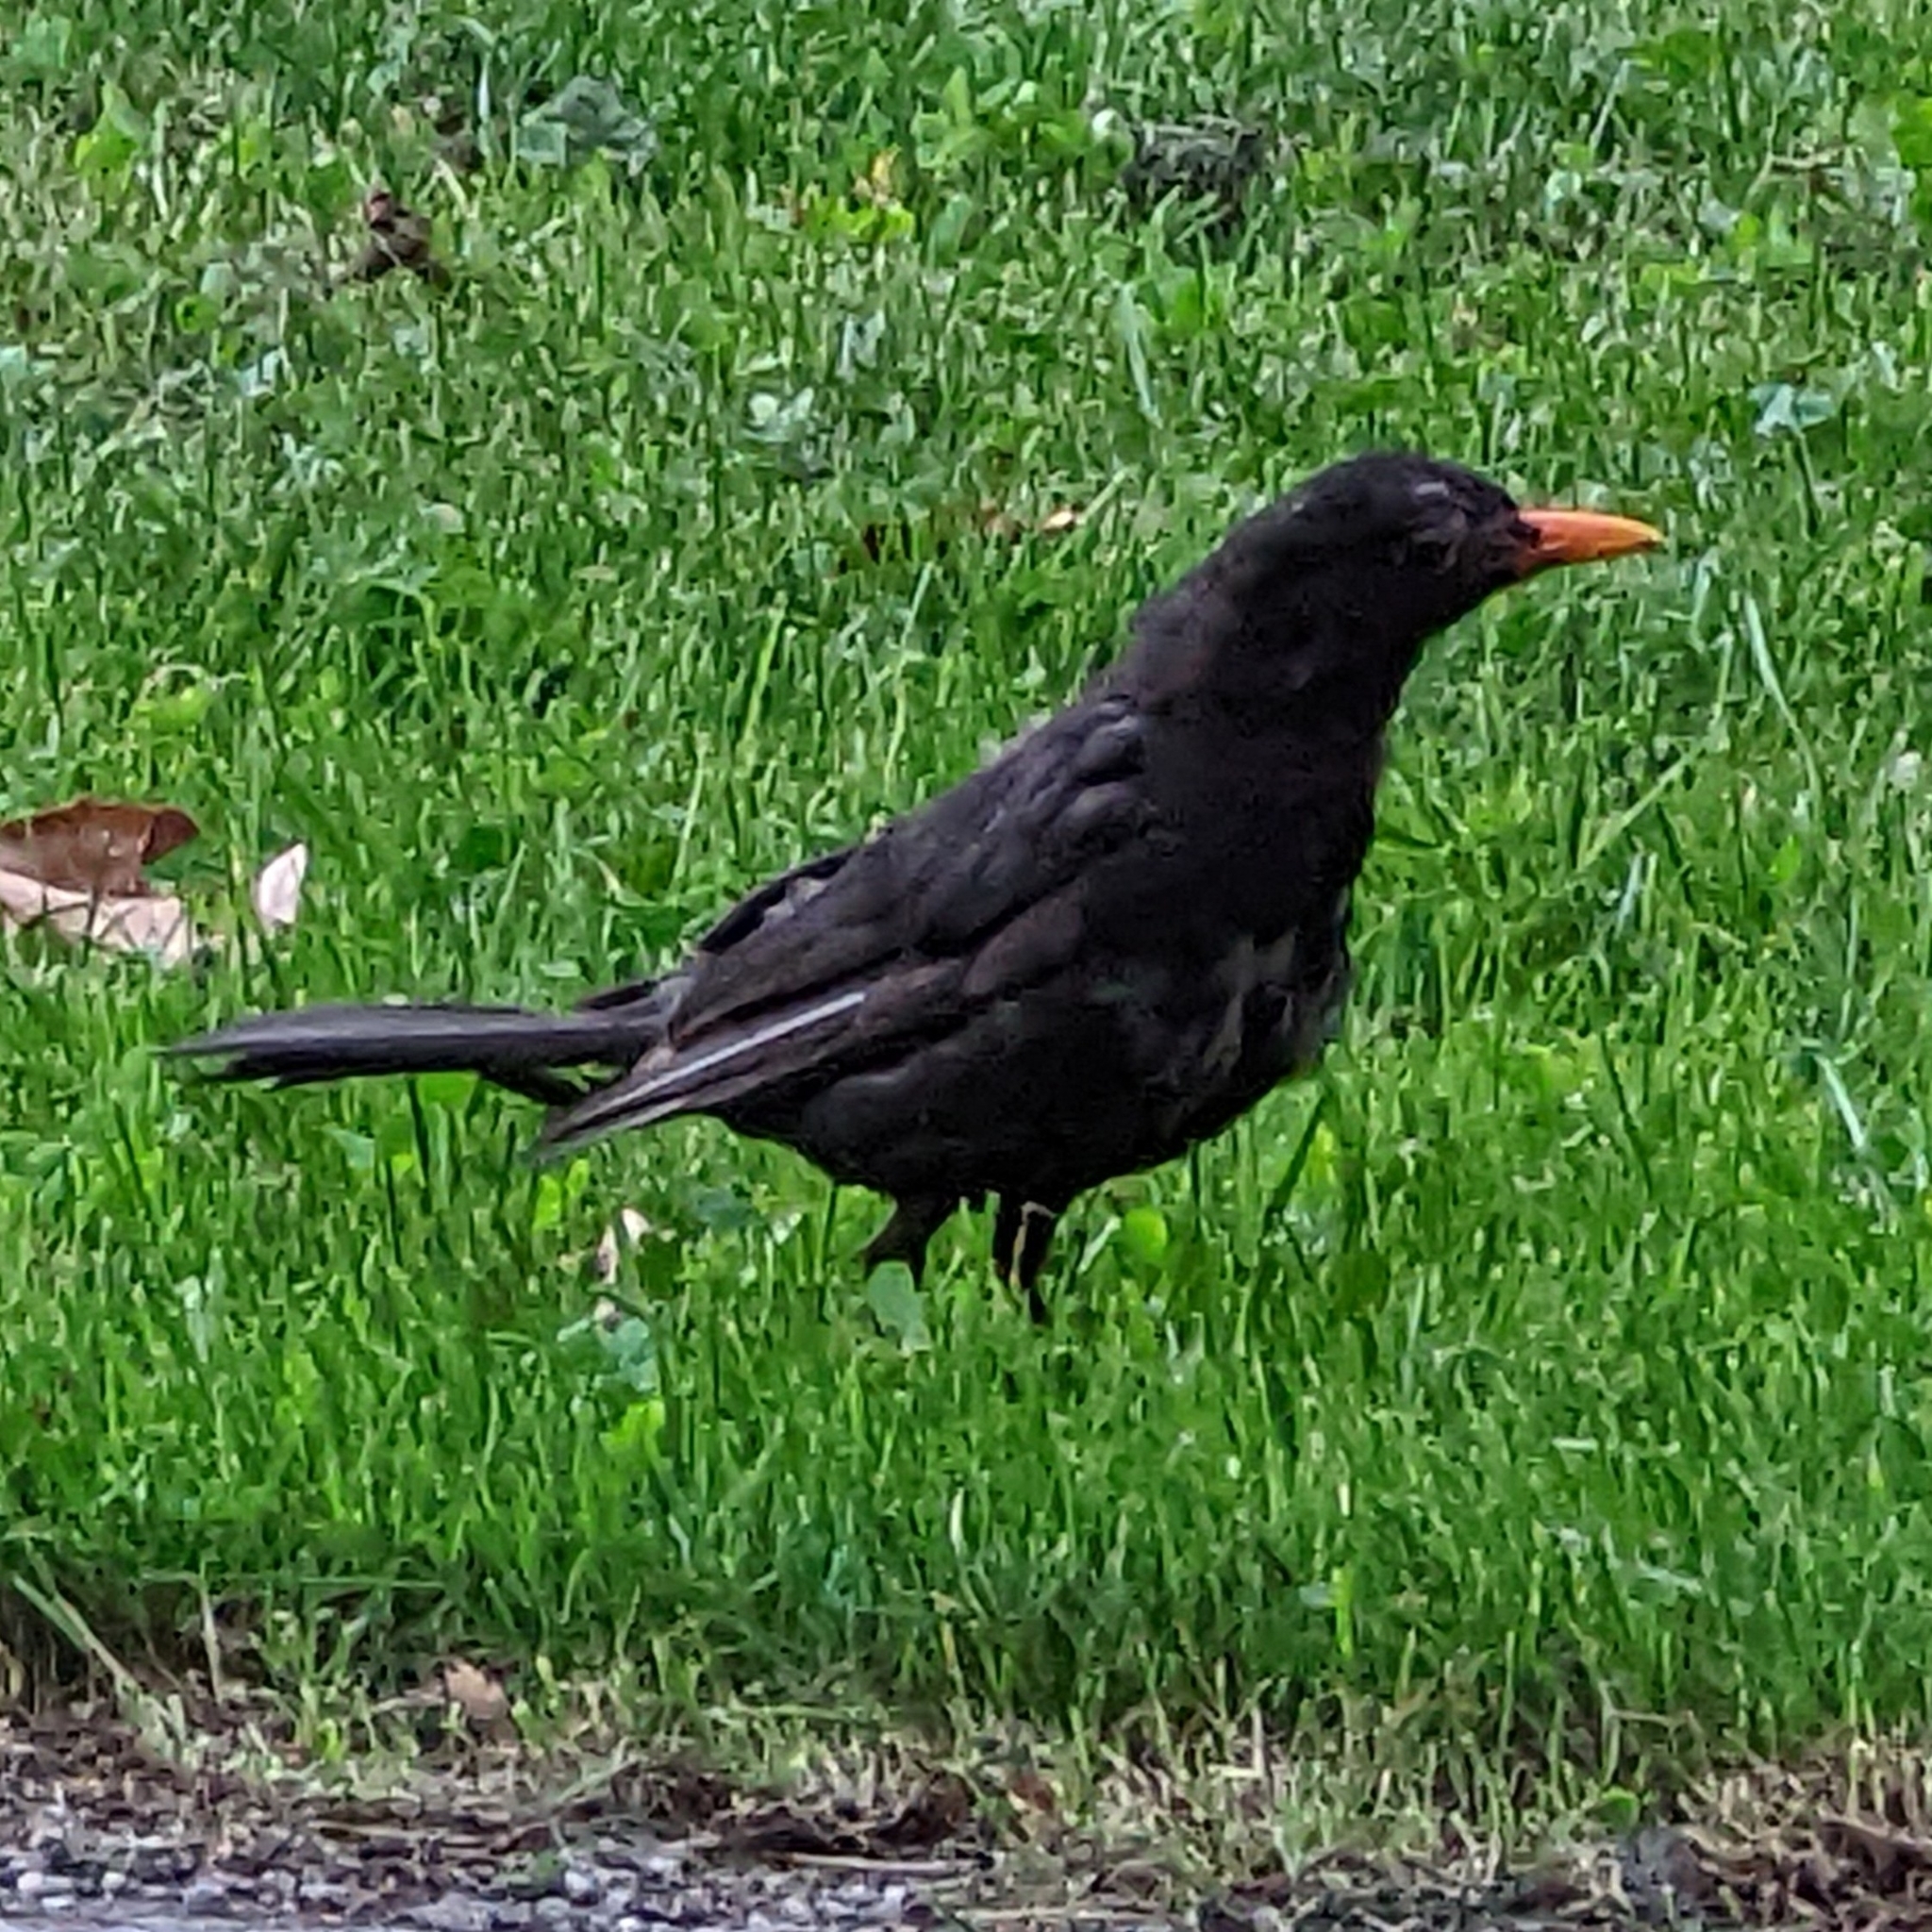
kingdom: Animalia
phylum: Chordata
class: Aves
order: Passeriformes
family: Turdidae
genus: Turdus
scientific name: Turdus merula
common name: Common blackbird
